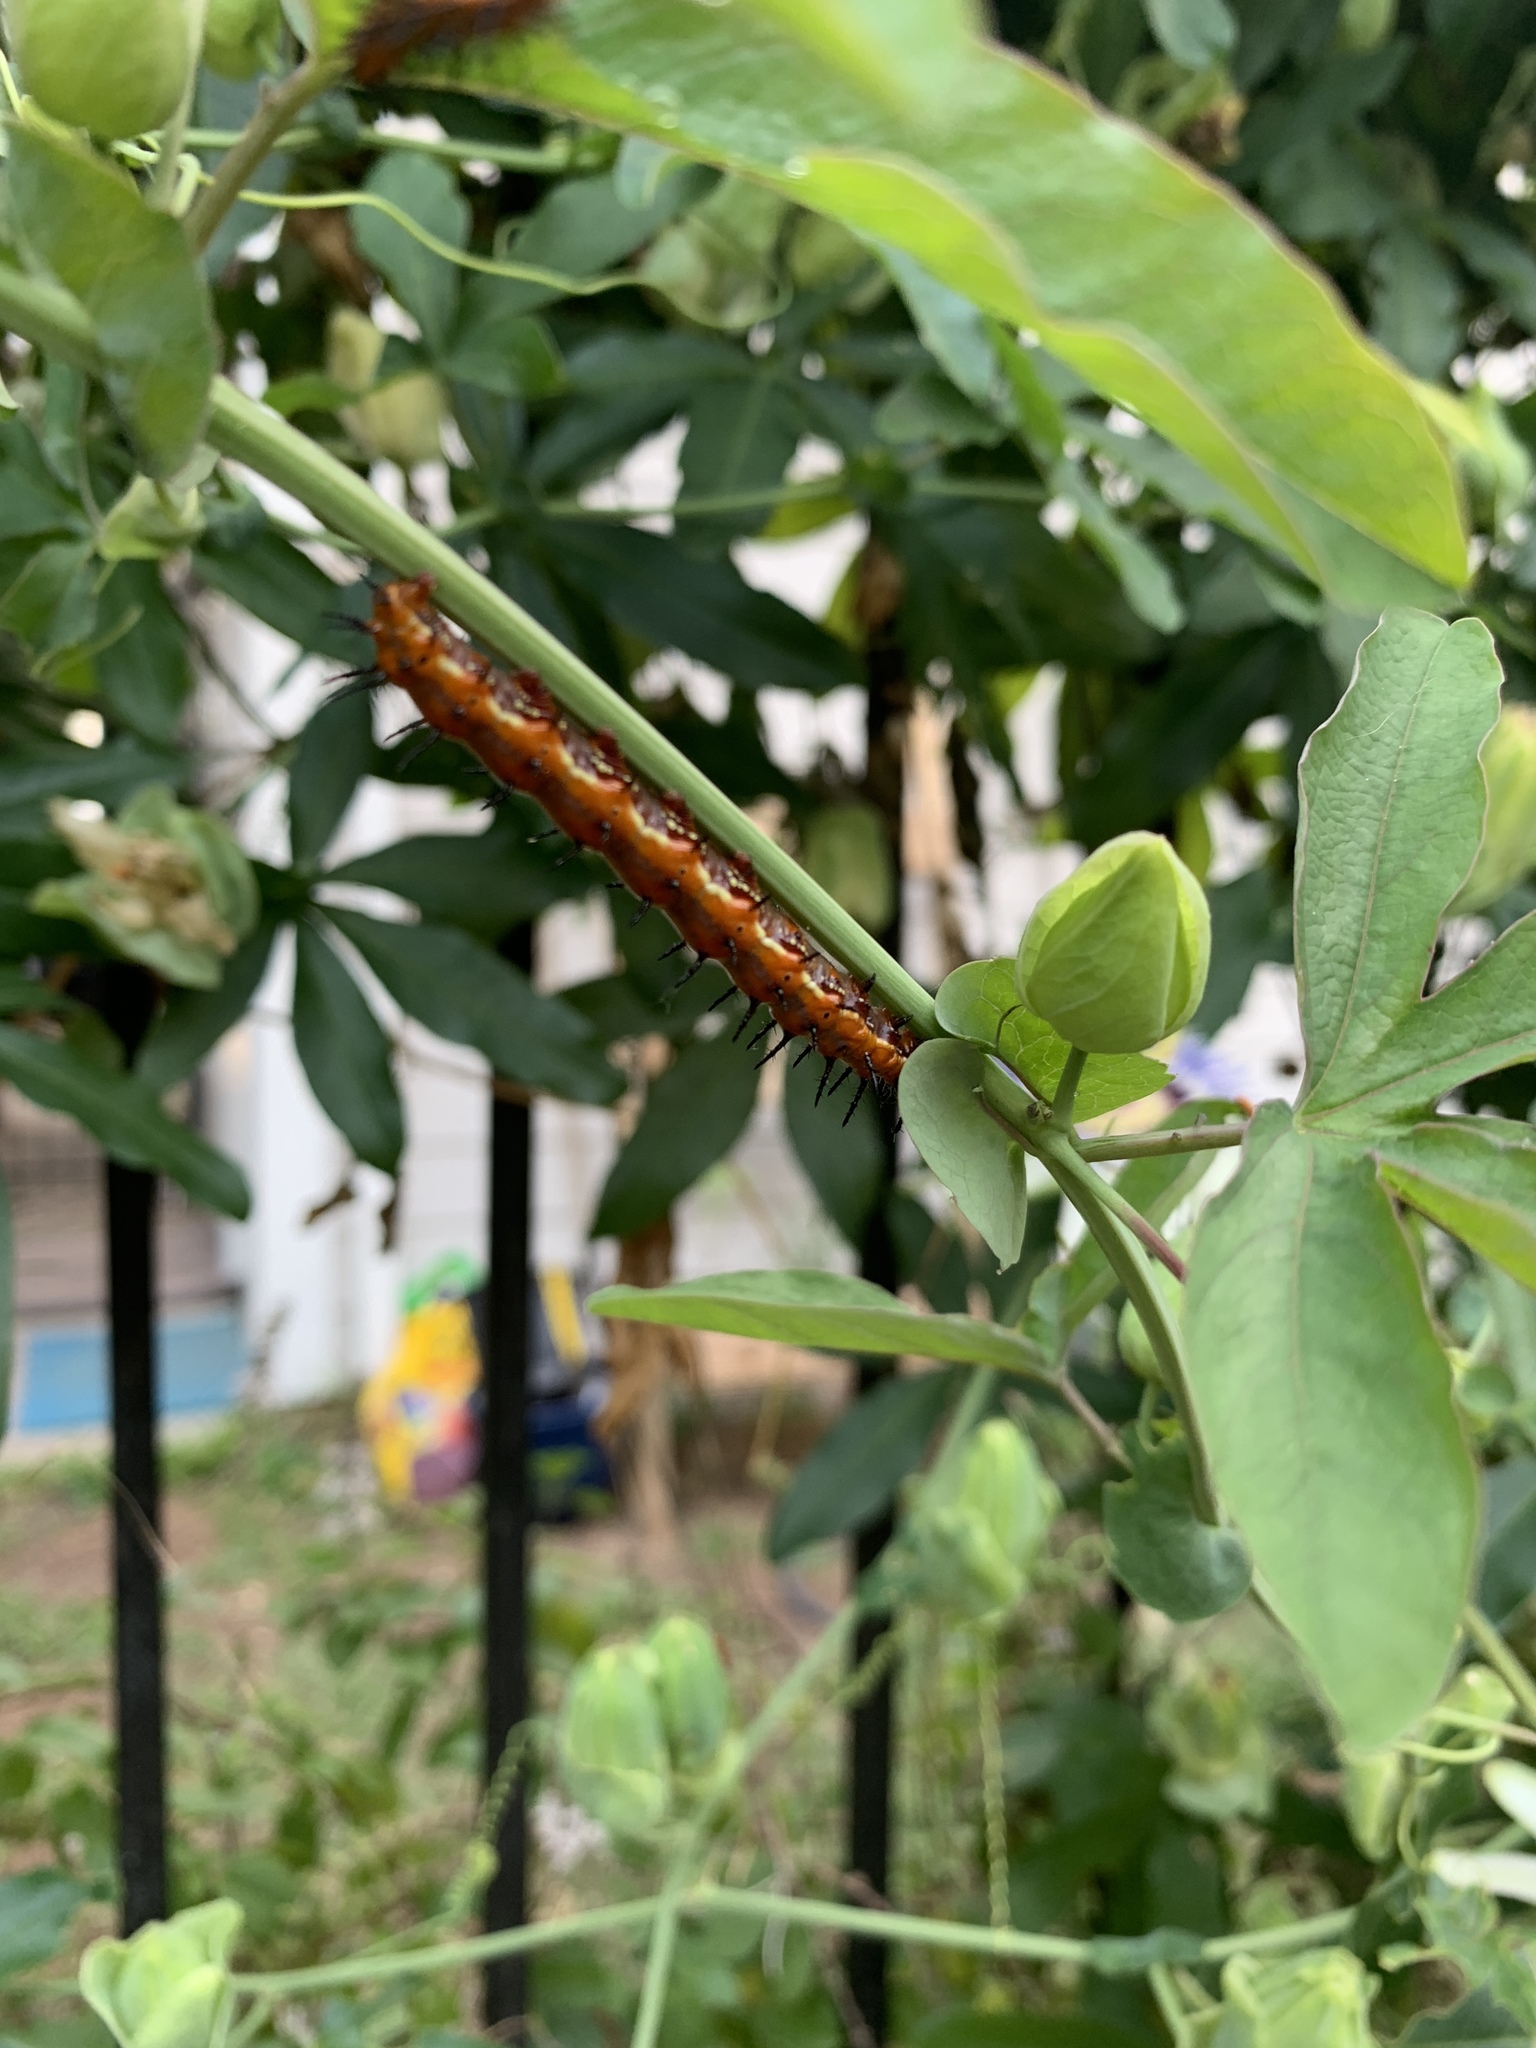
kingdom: Animalia
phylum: Arthropoda
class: Insecta
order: Lepidoptera
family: Nymphalidae
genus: Dione
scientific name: Dione vanillae
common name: Gulf fritillary
